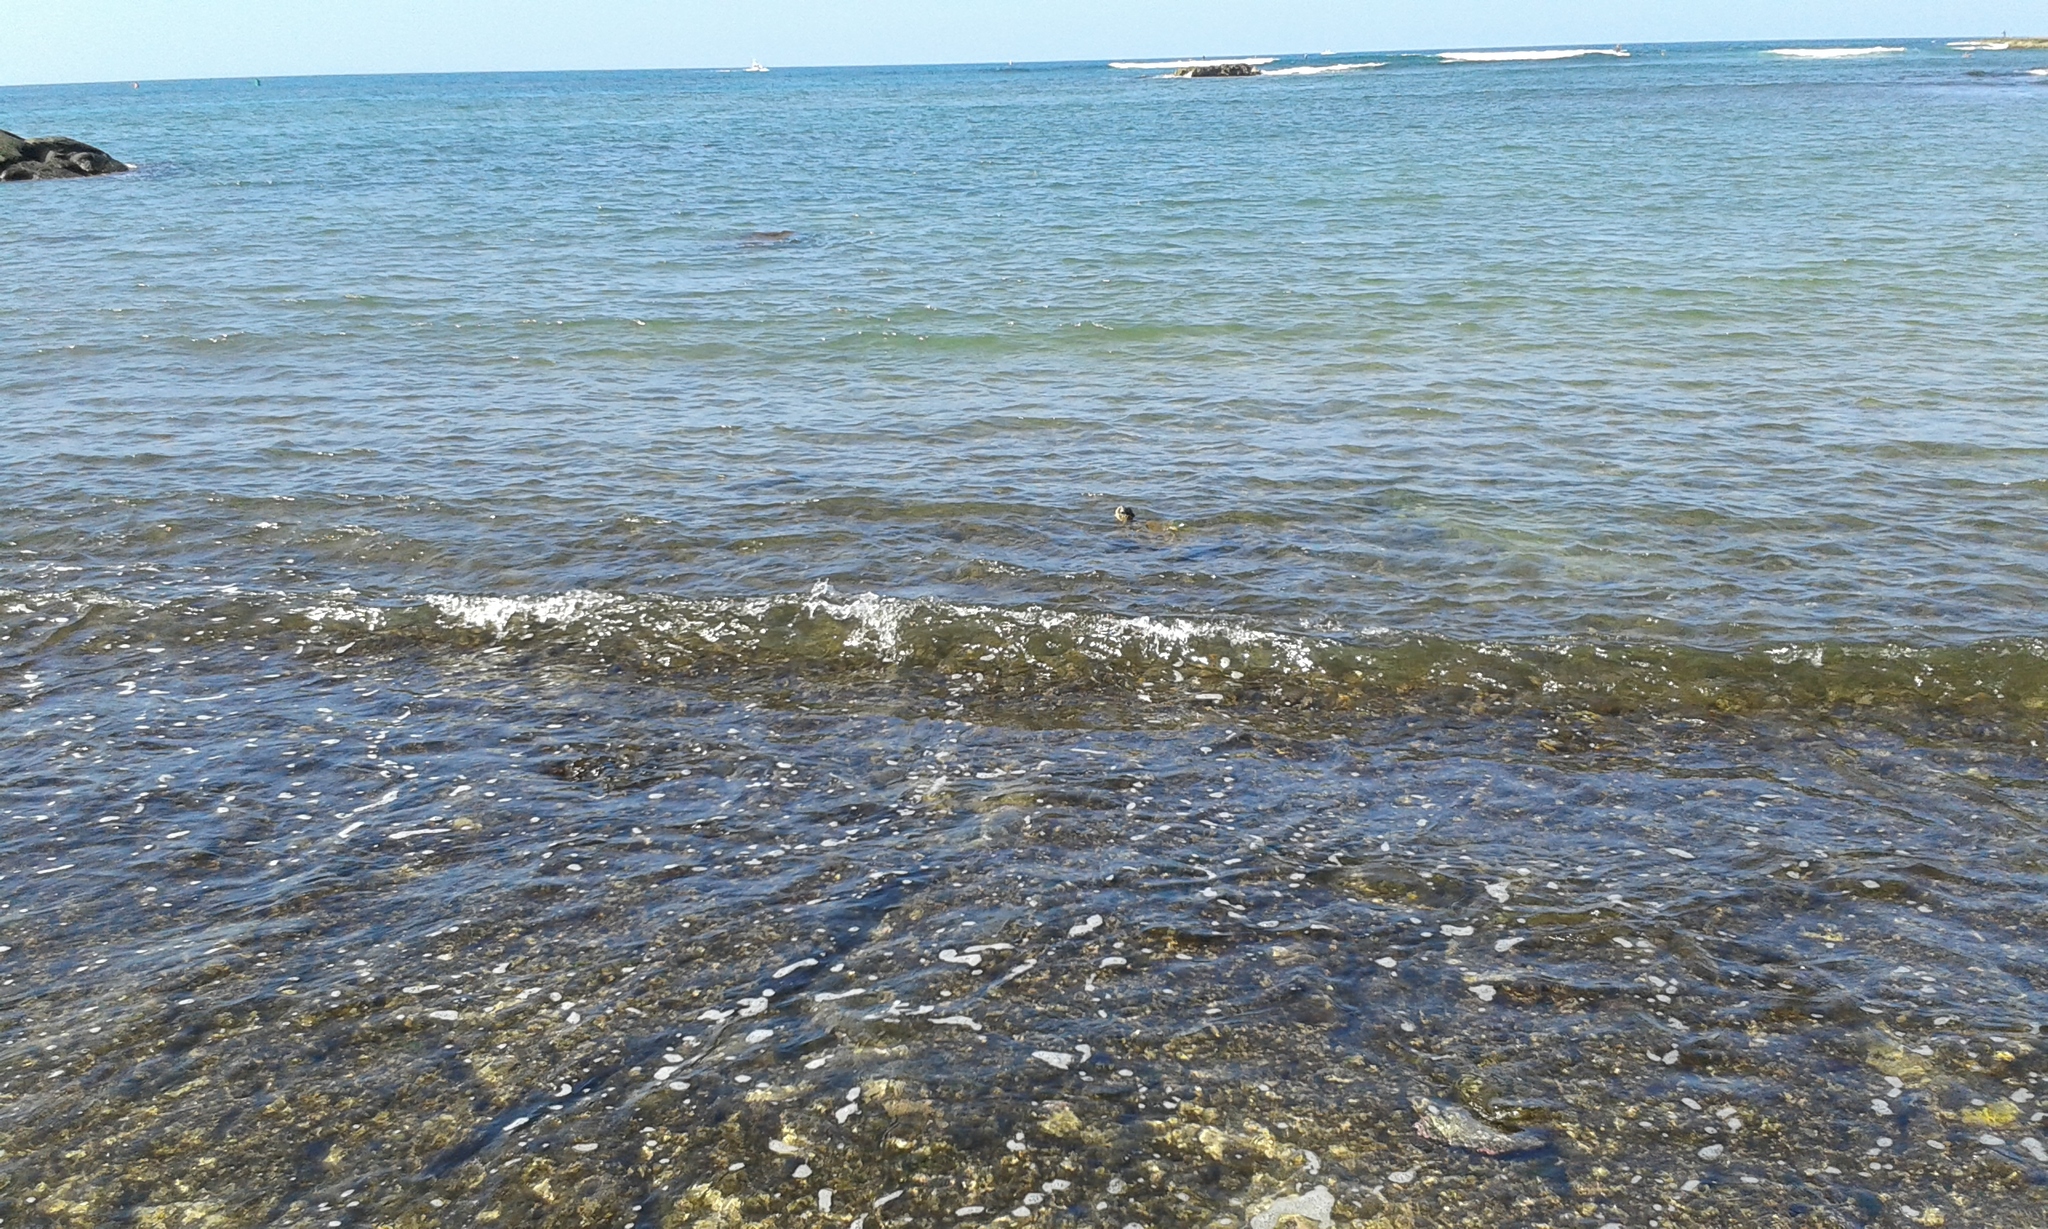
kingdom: Animalia
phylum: Chordata
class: Testudines
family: Cheloniidae
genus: Chelonia
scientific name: Chelonia mydas
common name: Green turtle
